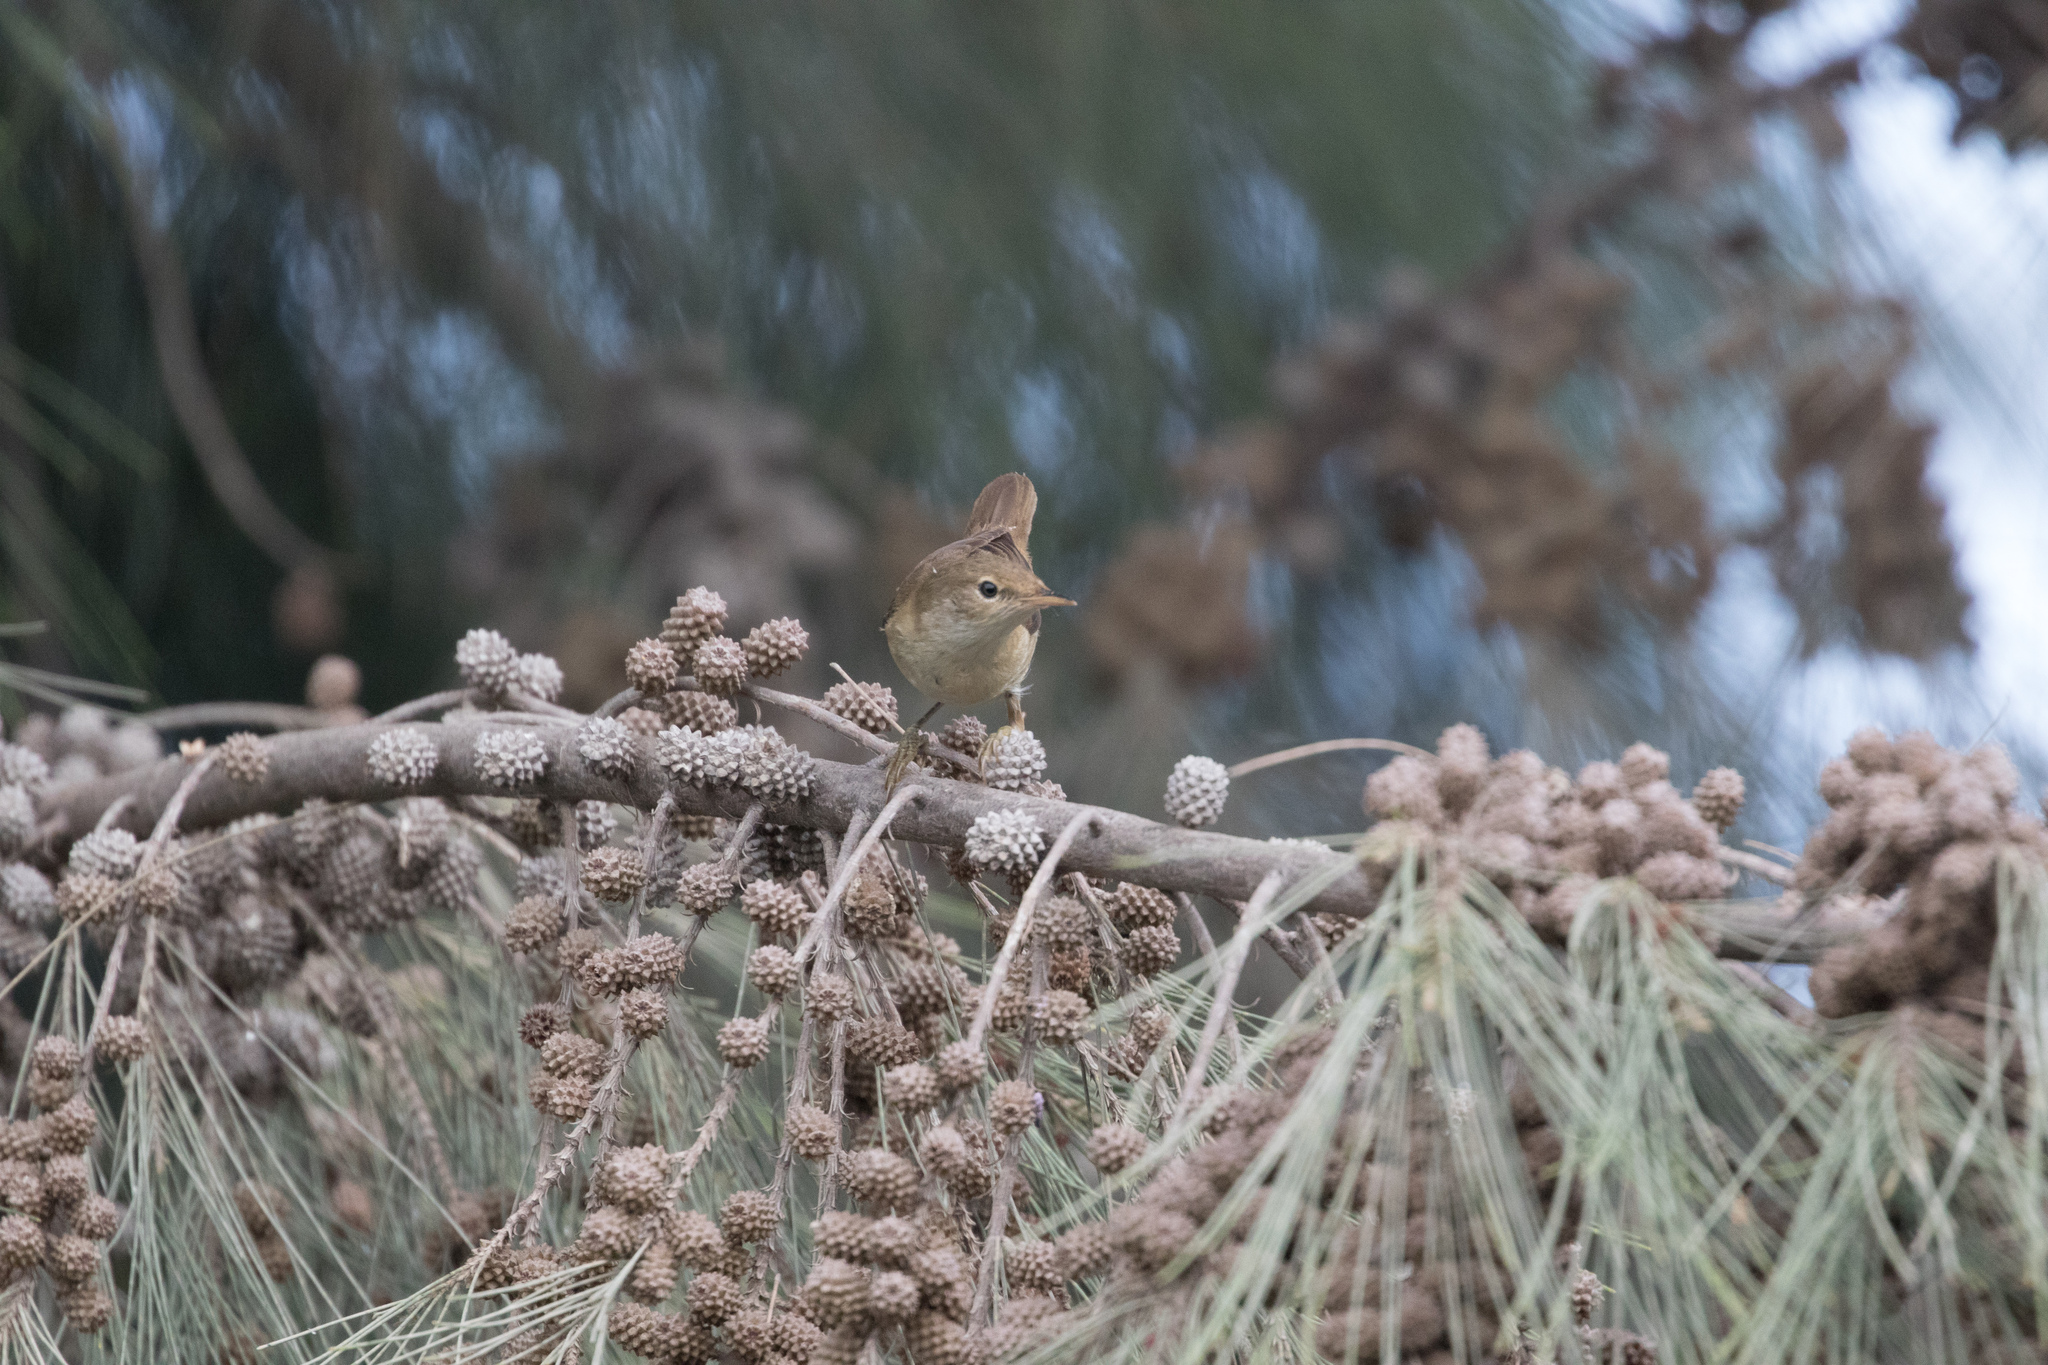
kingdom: Animalia
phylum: Chordata
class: Aves
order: Passeriformes
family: Acrocephalidae
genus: Acrocephalus
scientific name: Acrocephalus scirpaceus
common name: Eurasian reed warbler
